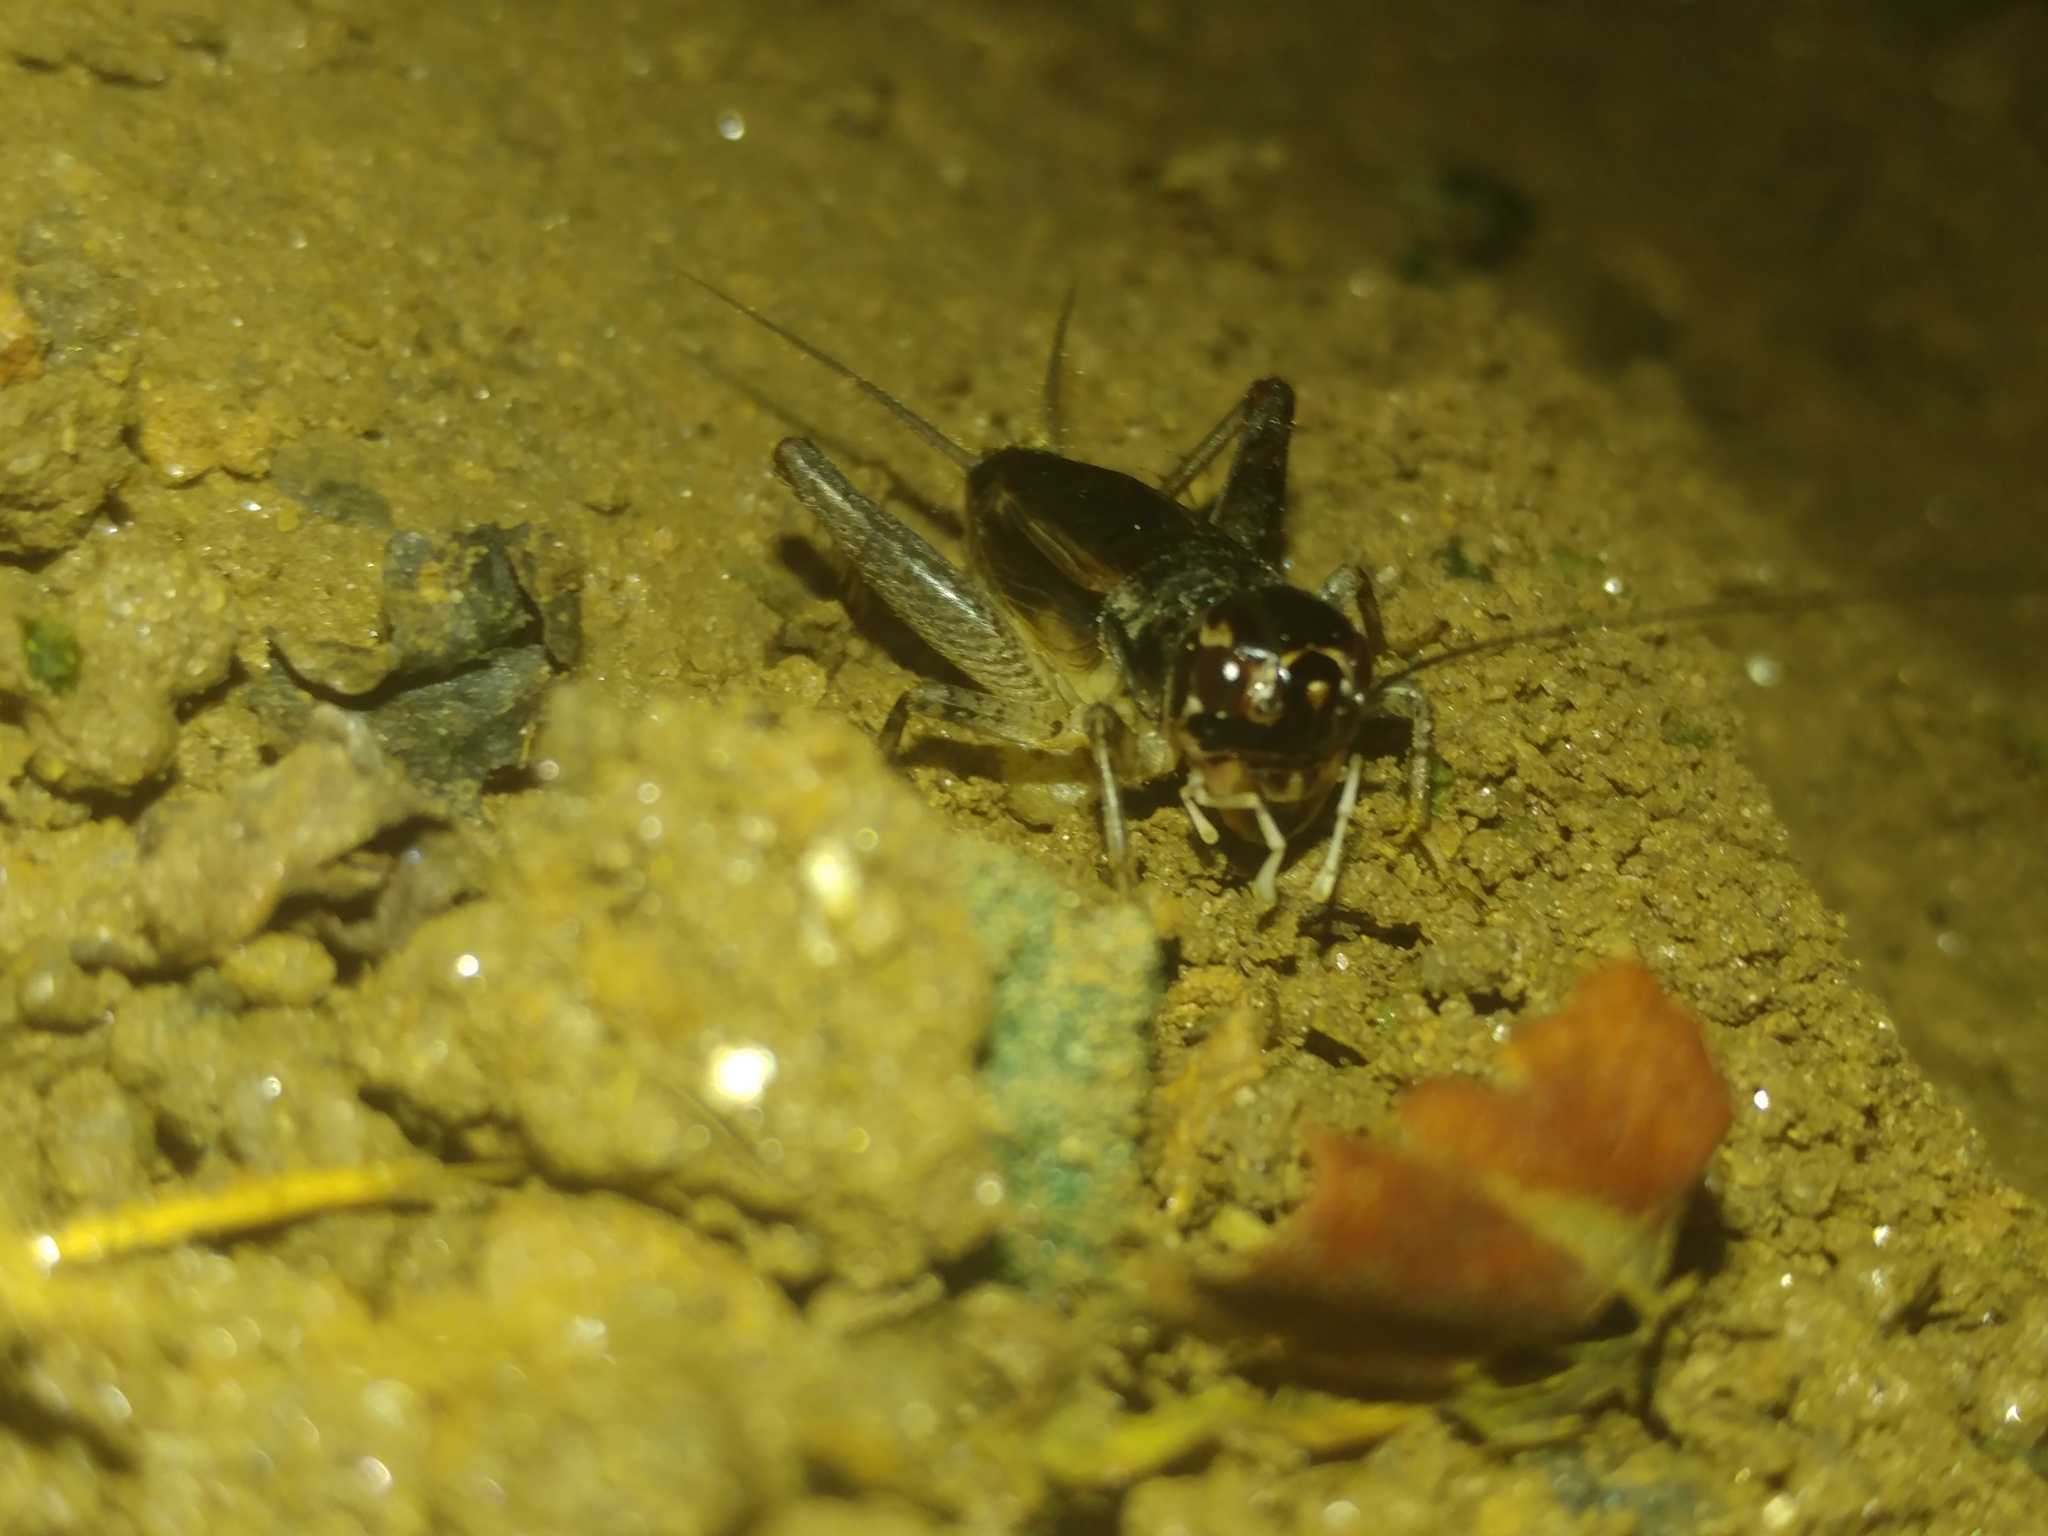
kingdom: Animalia
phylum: Arthropoda
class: Insecta
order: Orthoptera
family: Gryllidae
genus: Velarifictorus
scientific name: Velarifictorus micado
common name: Japanese burrowing cricket
